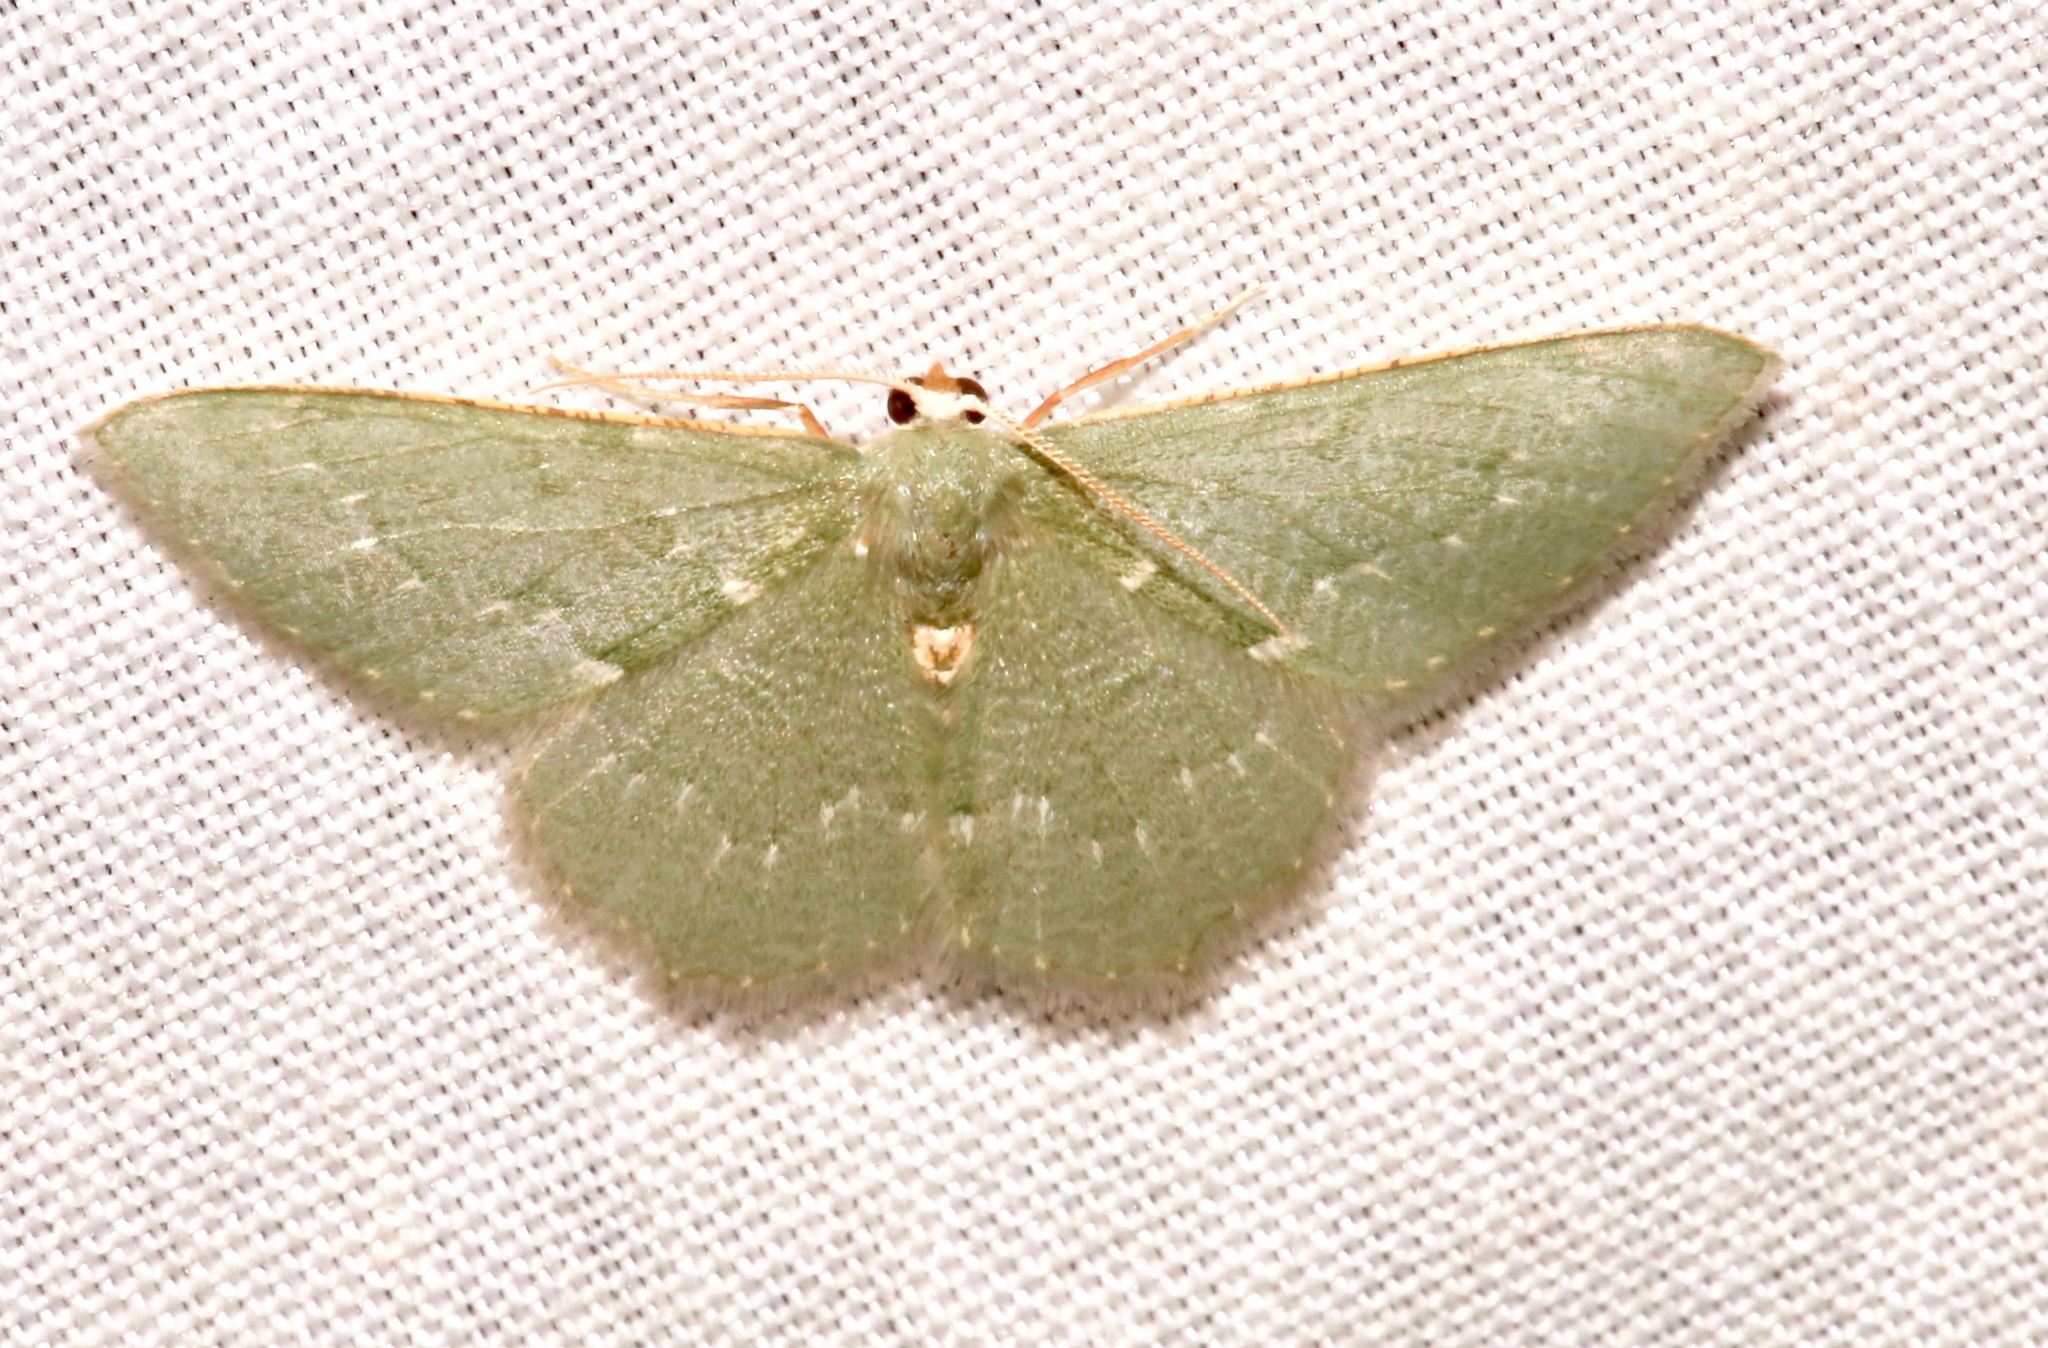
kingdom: Animalia
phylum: Arthropoda
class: Insecta
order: Lepidoptera
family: Geometridae
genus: Xerochlora
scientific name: Xerochlora masonaria
